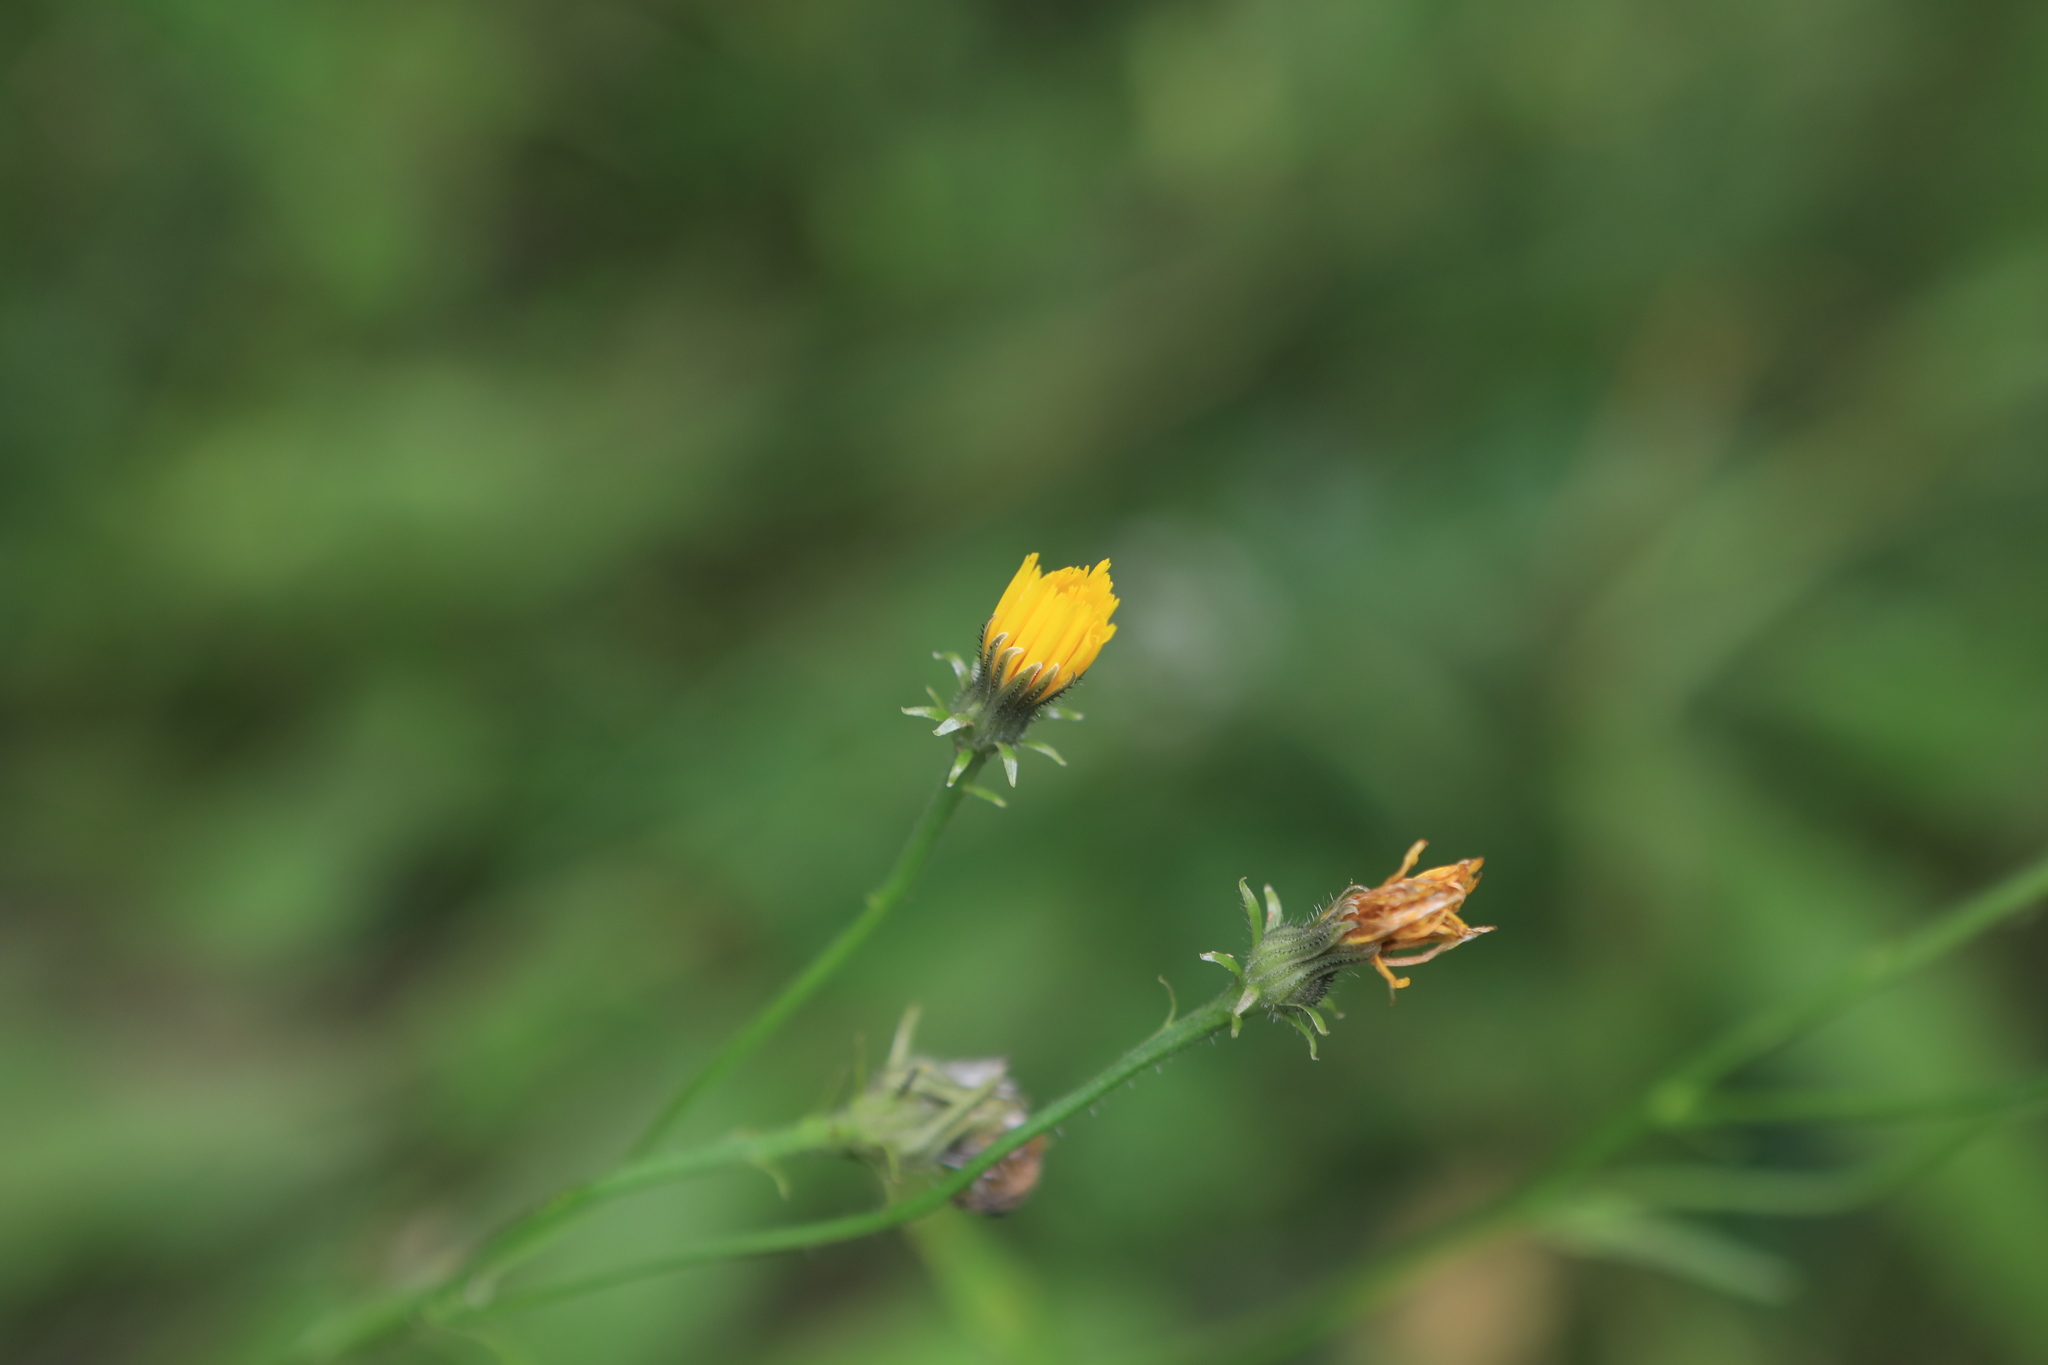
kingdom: Plantae
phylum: Tracheophyta
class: Magnoliopsida
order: Asterales
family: Asteraceae
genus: Picris
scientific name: Picris hieracioides
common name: Hawkweed oxtongue
